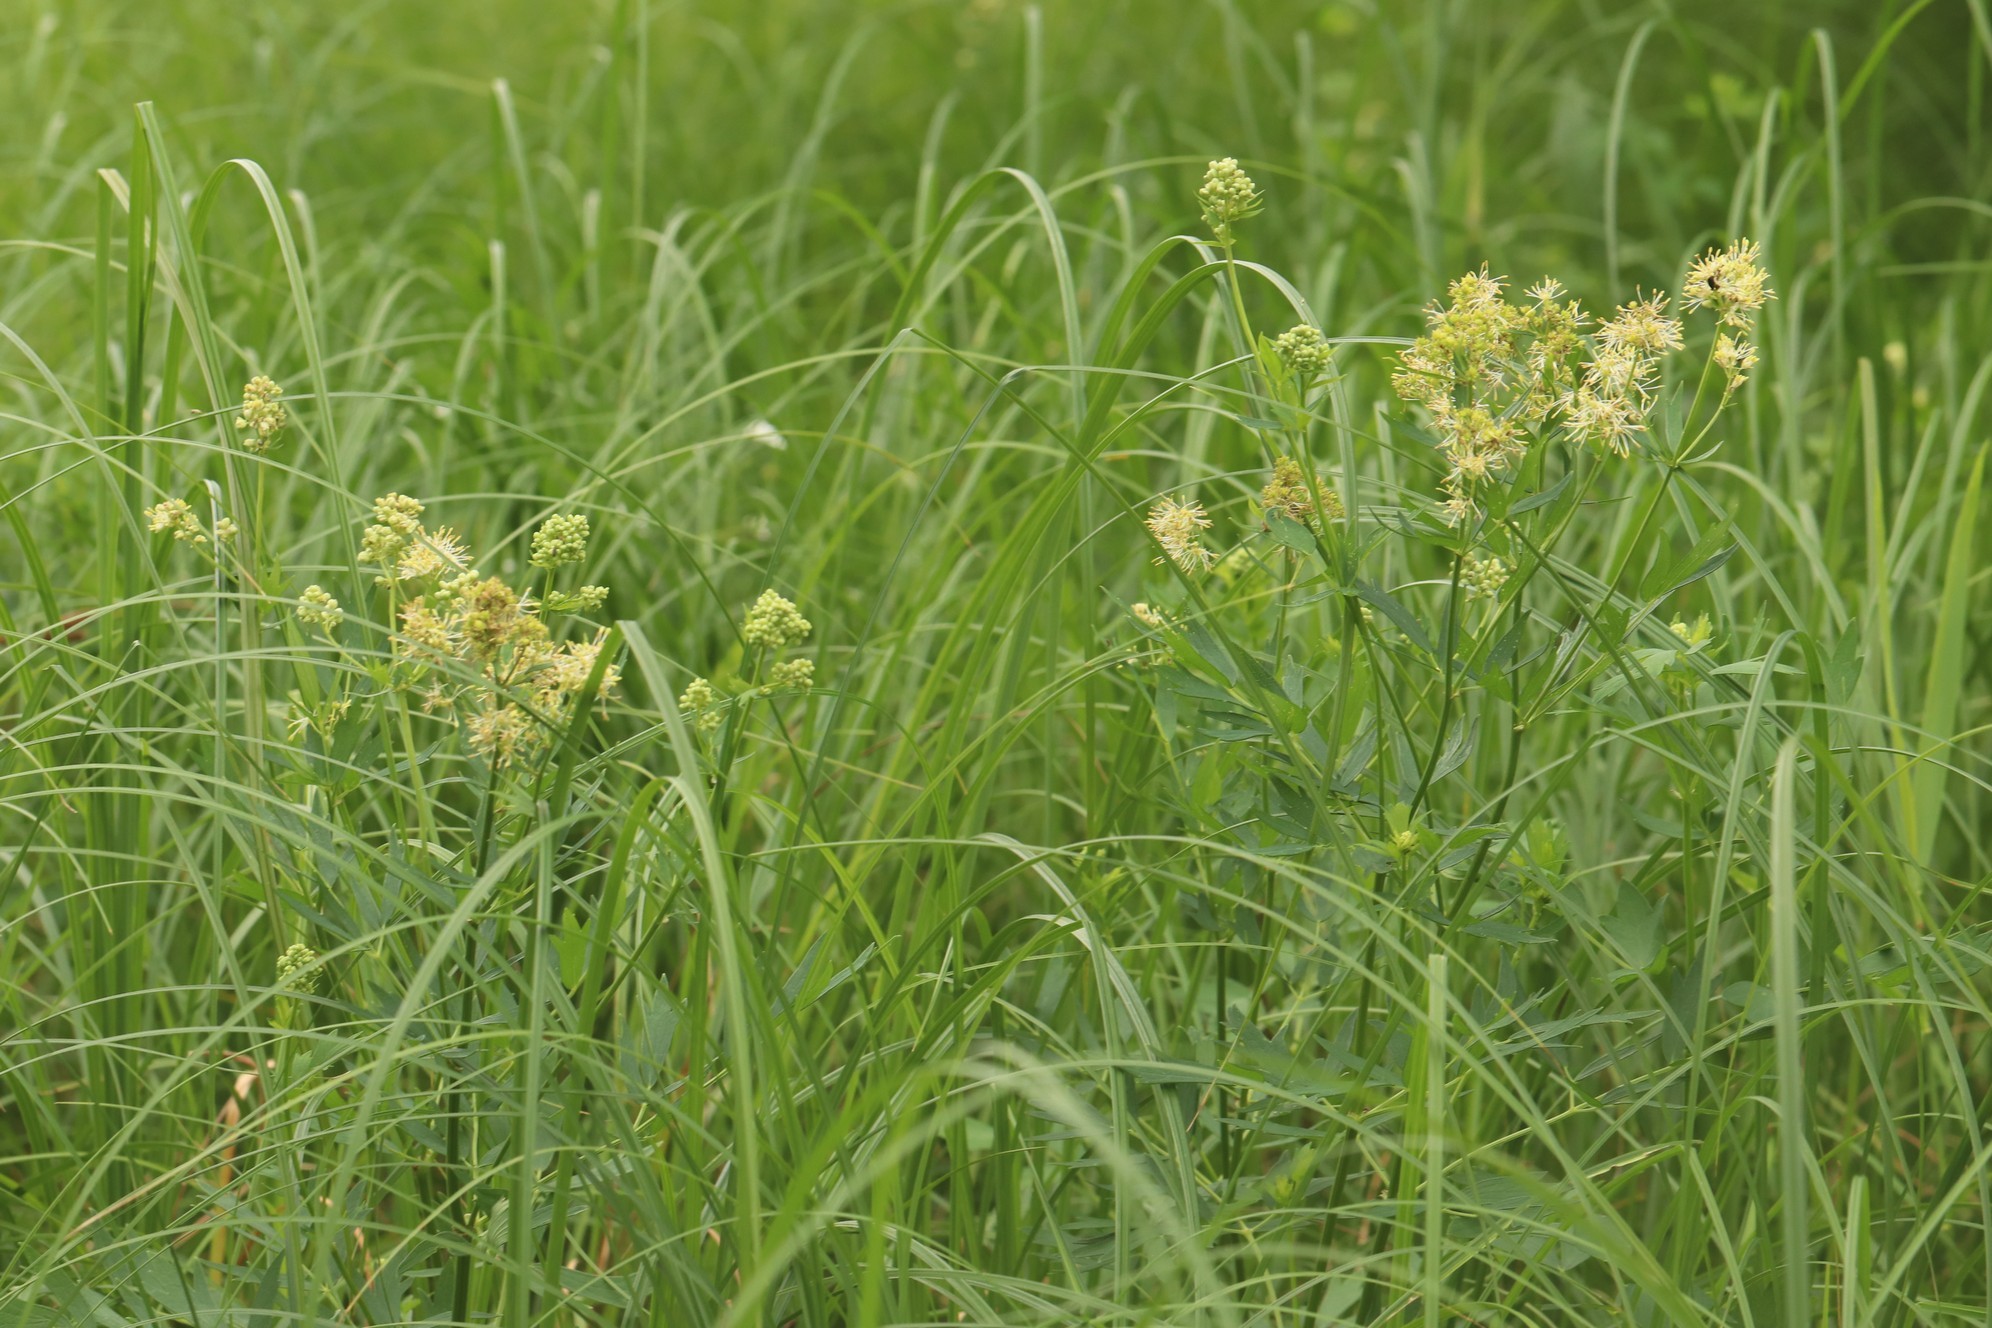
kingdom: Plantae
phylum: Tracheophyta
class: Magnoliopsida
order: Ranunculales
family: Ranunculaceae
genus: Thalictrum
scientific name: Thalictrum flavum
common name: Common meadow-rue
